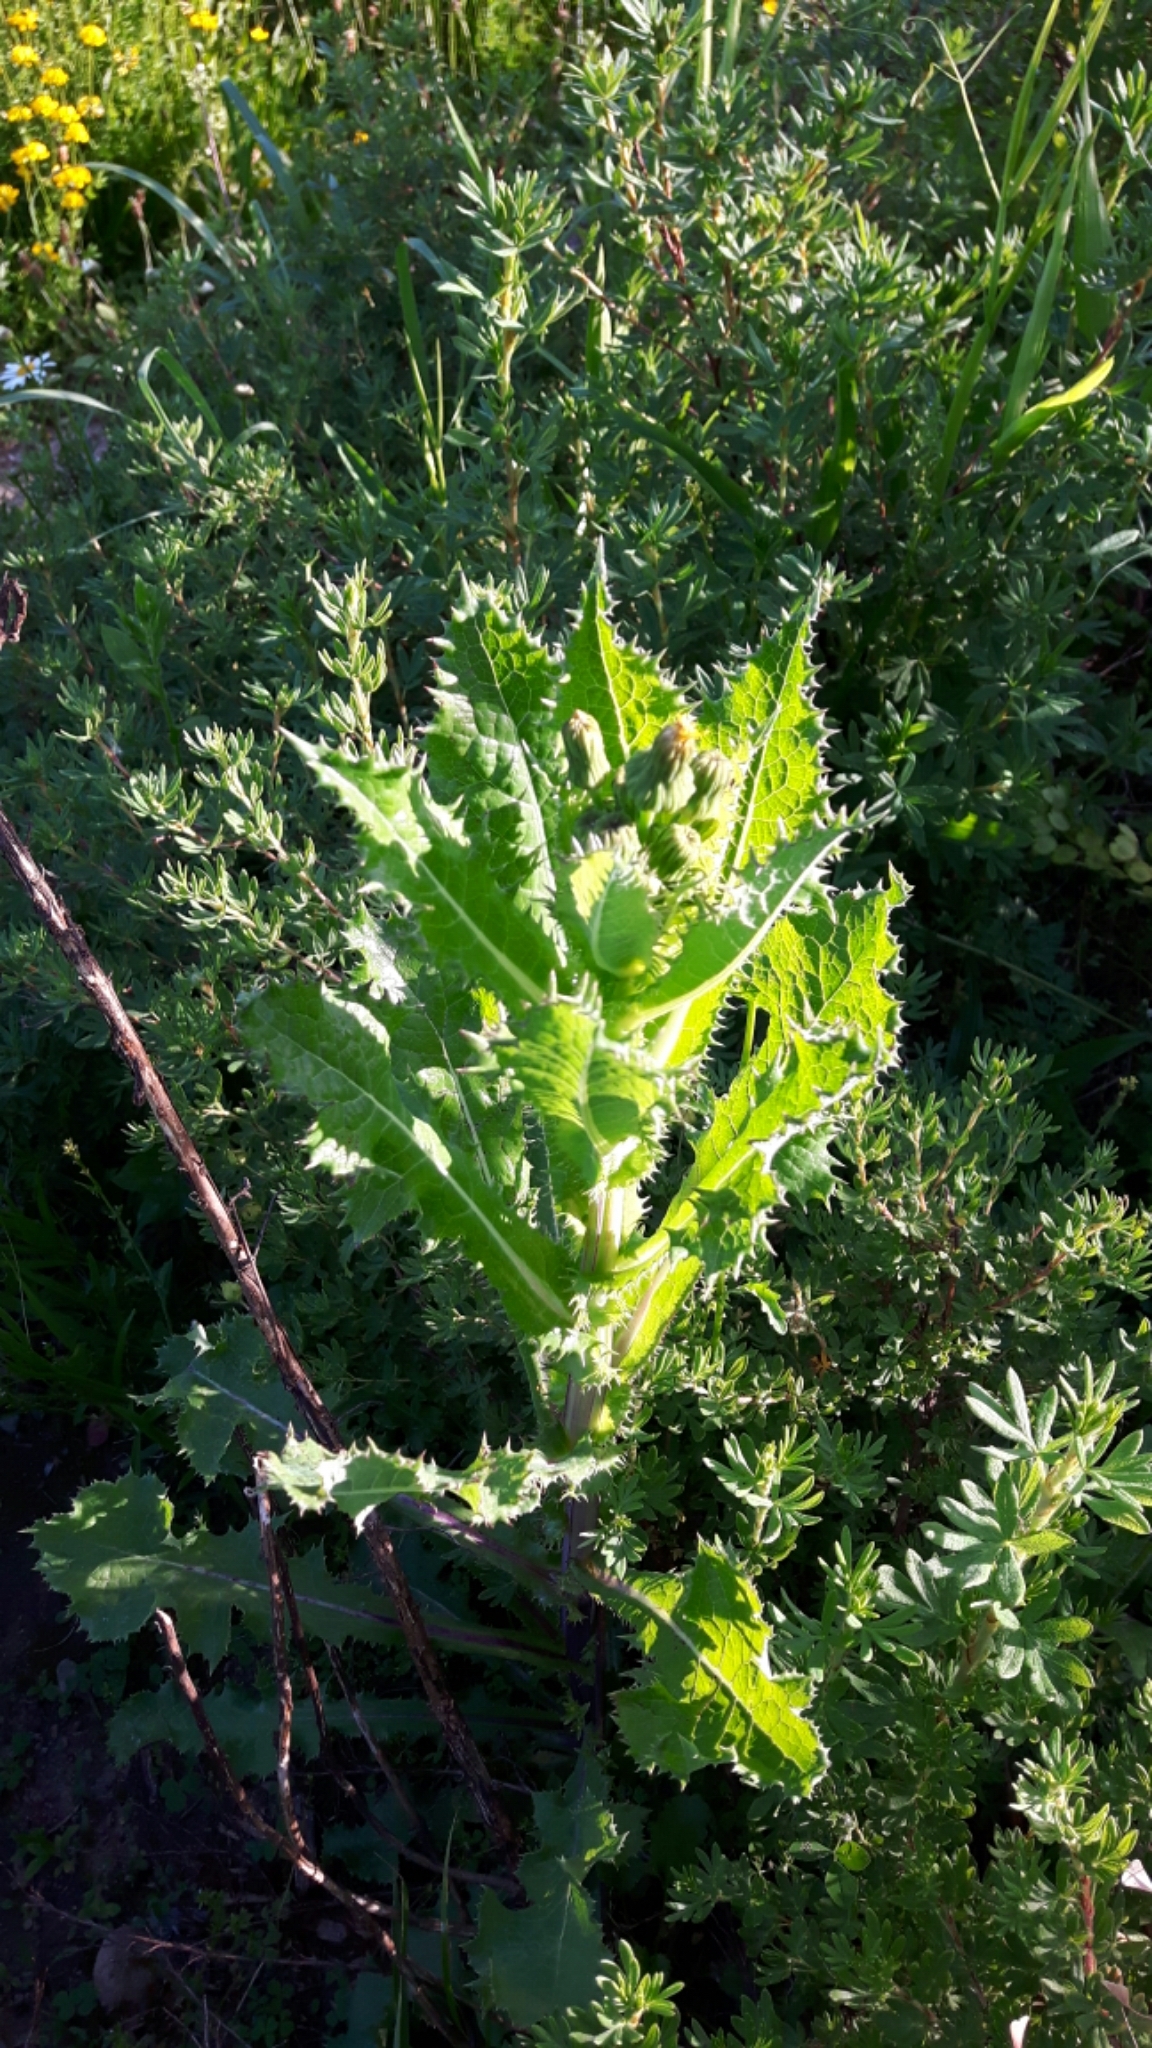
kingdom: Plantae
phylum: Tracheophyta
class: Magnoliopsida
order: Asterales
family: Asteraceae
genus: Sonchus
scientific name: Sonchus arvensis
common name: Perennial sow-thistle
